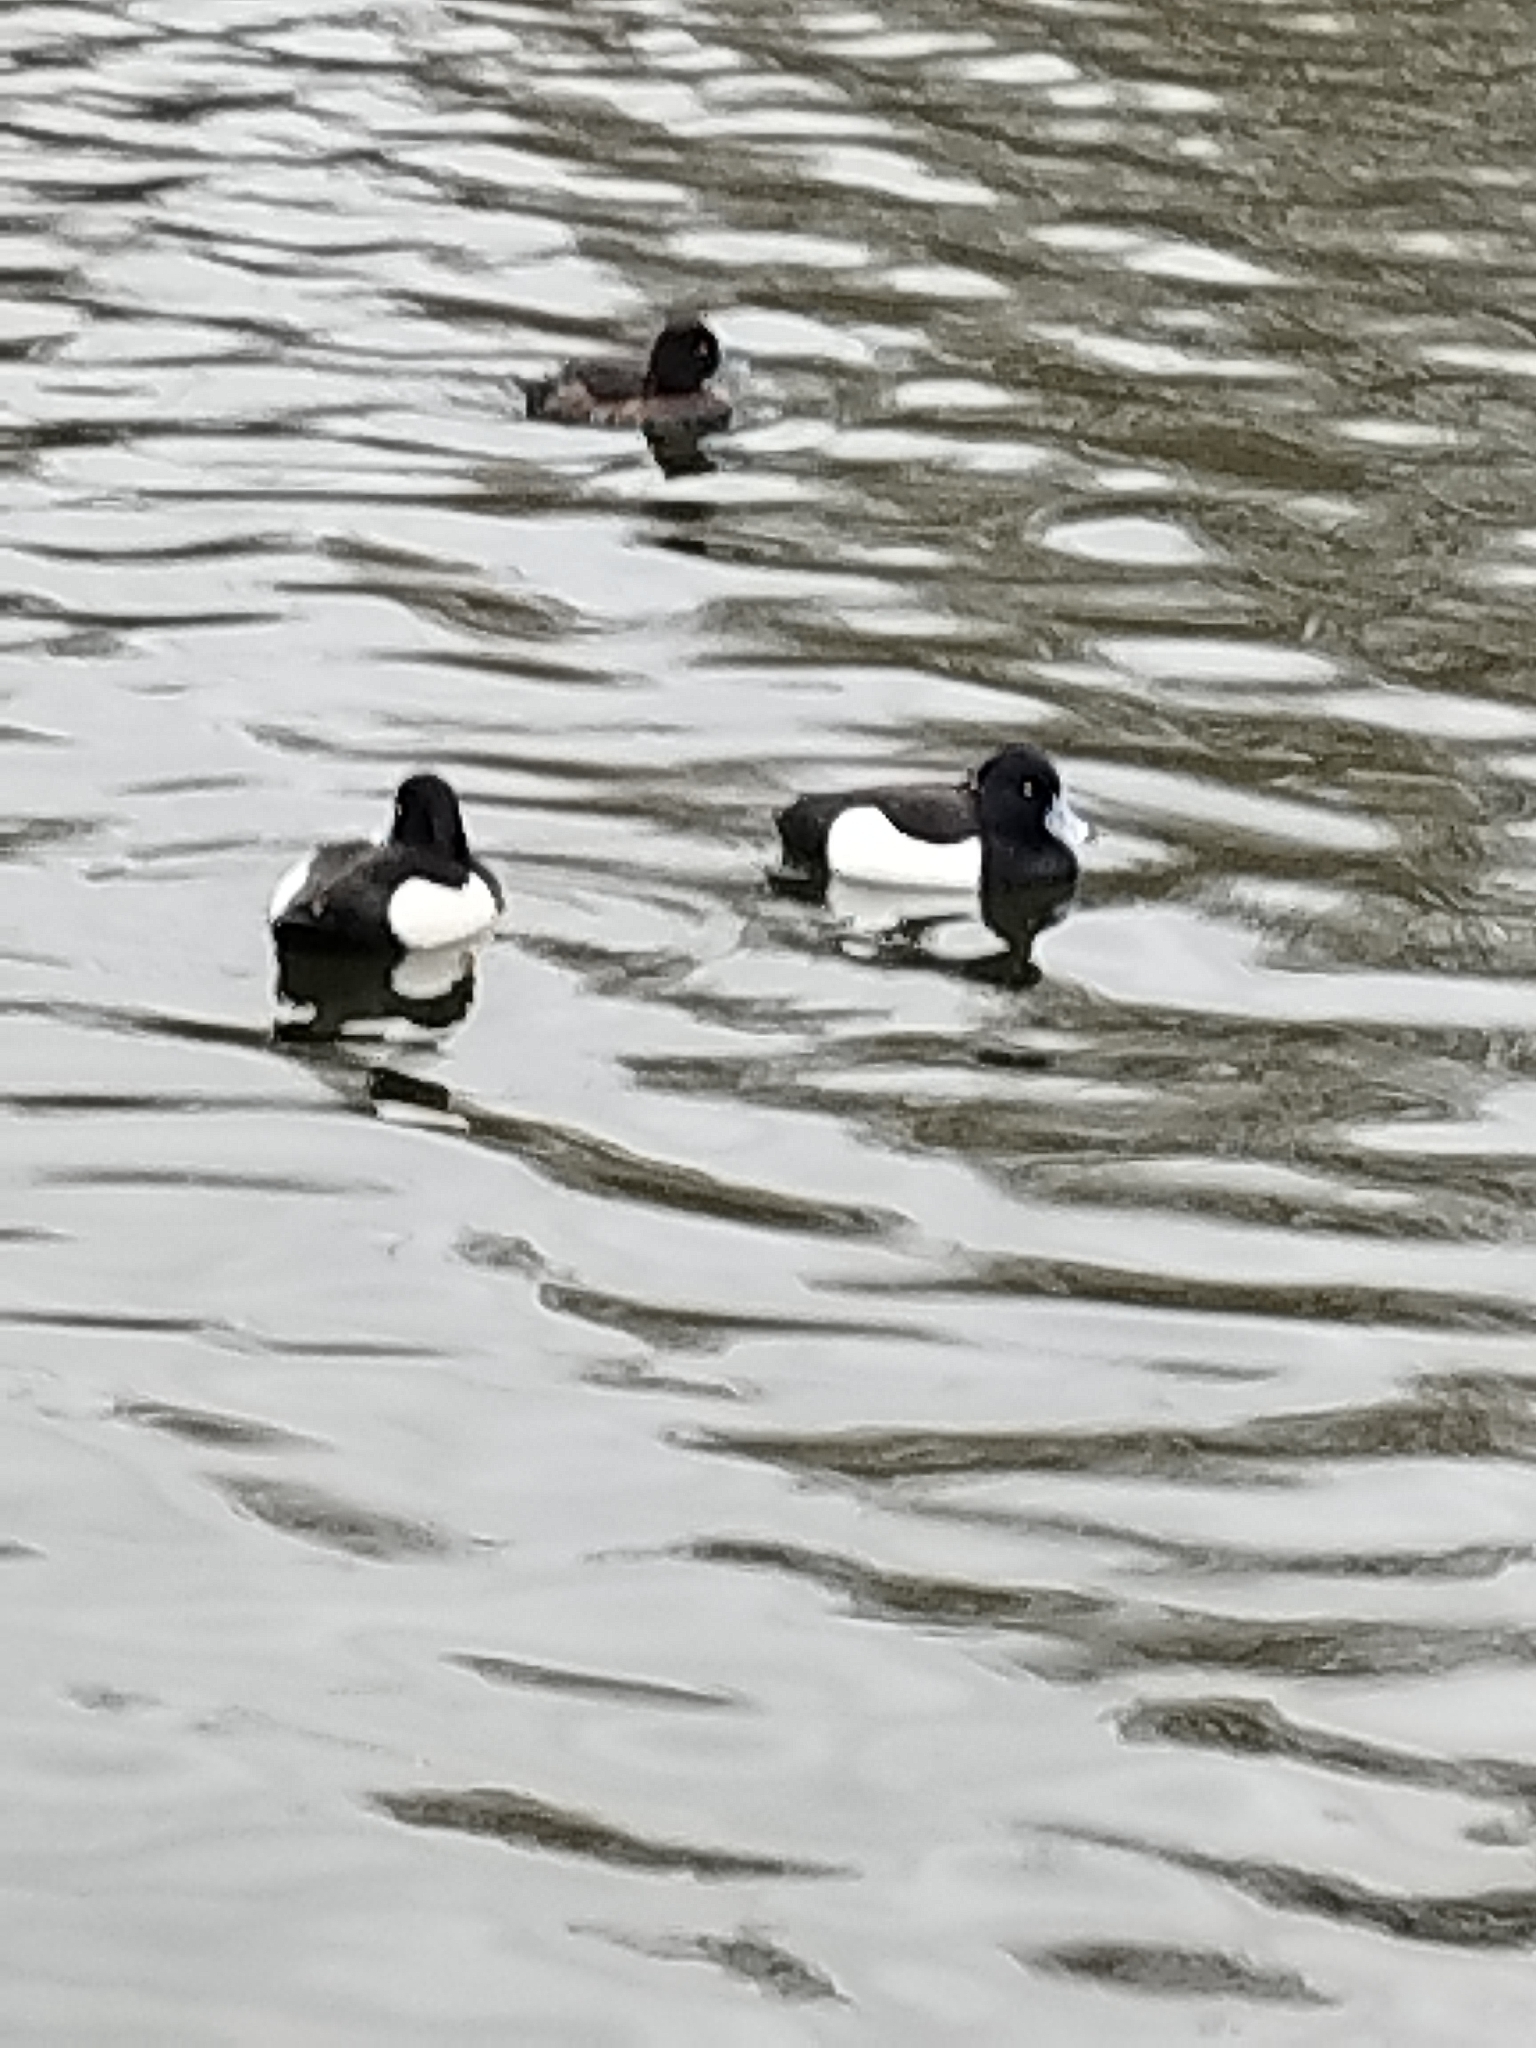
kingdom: Animalia
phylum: Chordata
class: Aves
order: Anseriformes
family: Anatidae
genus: Aythya
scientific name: Aythya fuligula
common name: Tufted duck
